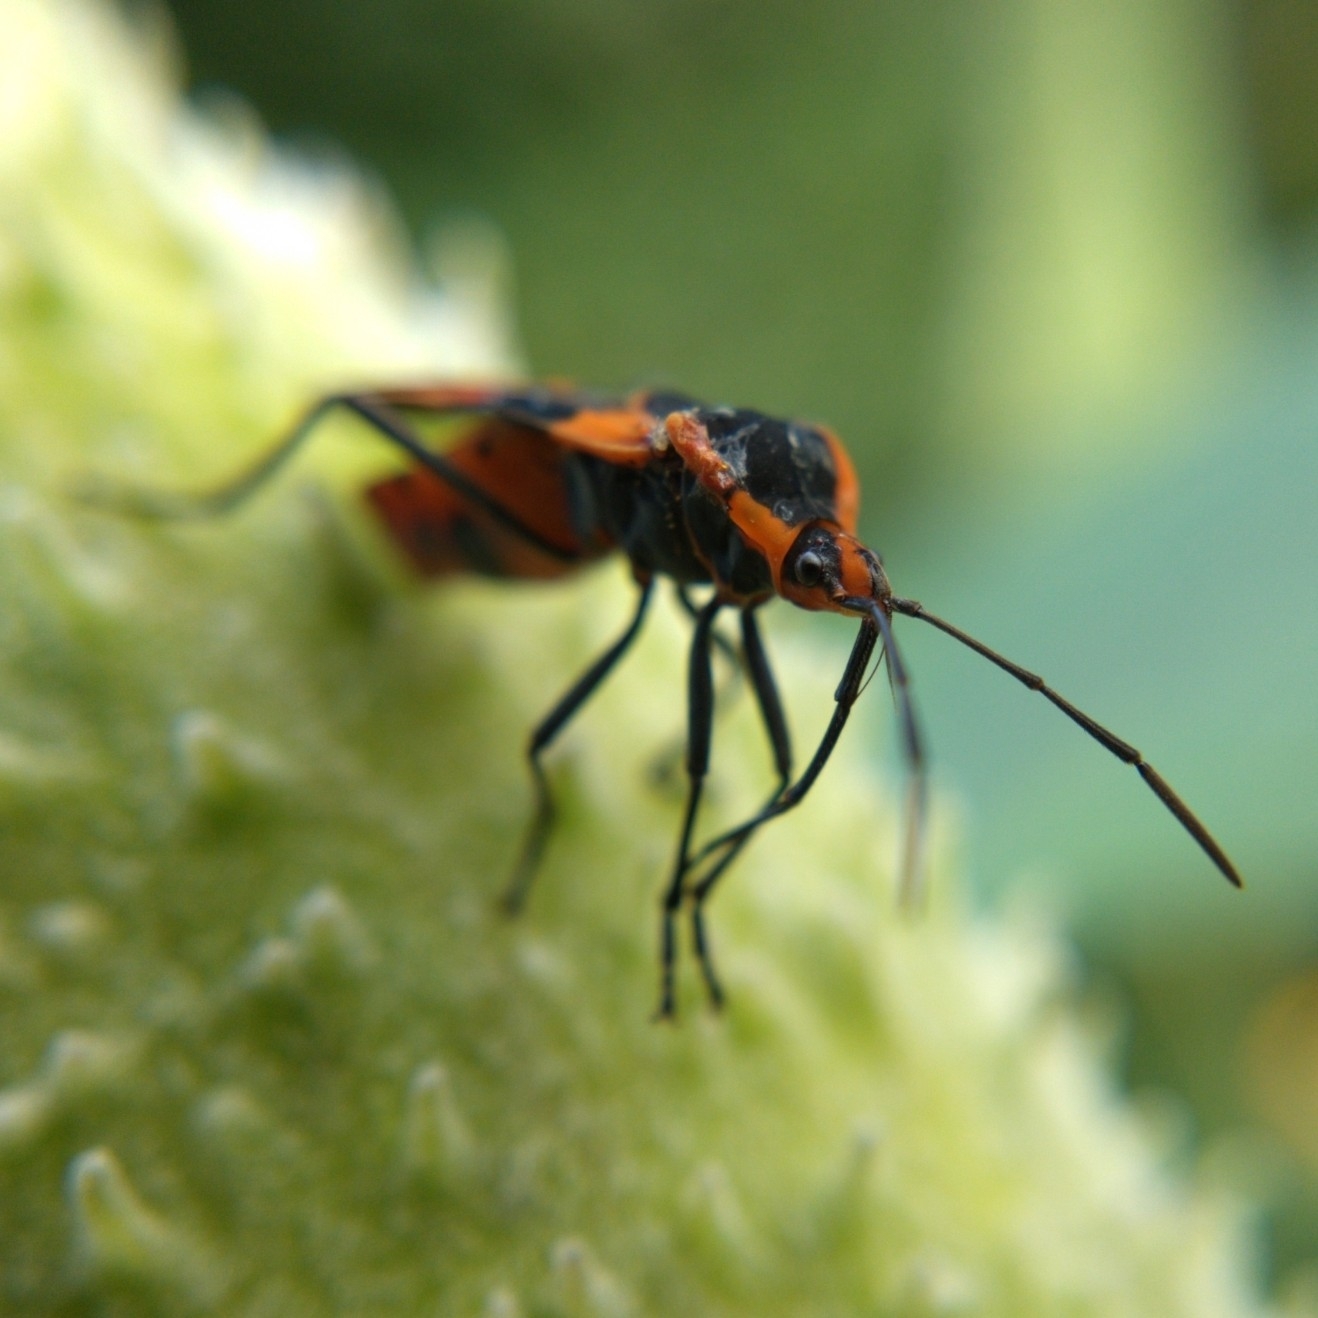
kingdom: Animalia
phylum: Arthropoda
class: Insecta
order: Hemiptera
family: Lygaeidae
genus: Oncopeltus
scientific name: Oncopeltus fasciatus
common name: Large milkweed bug
